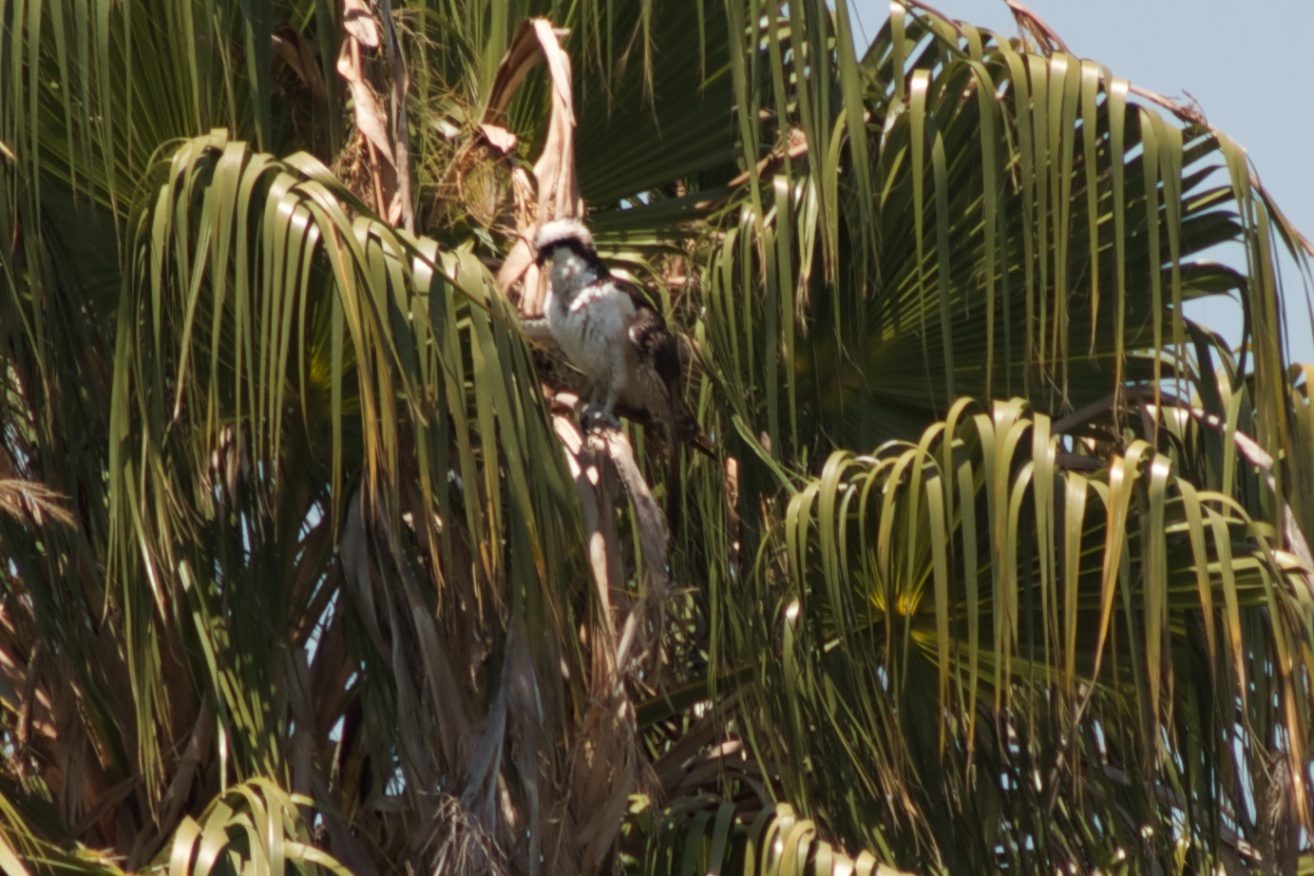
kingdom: Animalia
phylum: Chordata
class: Aves
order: Accipitriformes
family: Pandionidae
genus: Pandion
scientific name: Pandion haliaetus
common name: Osprey
